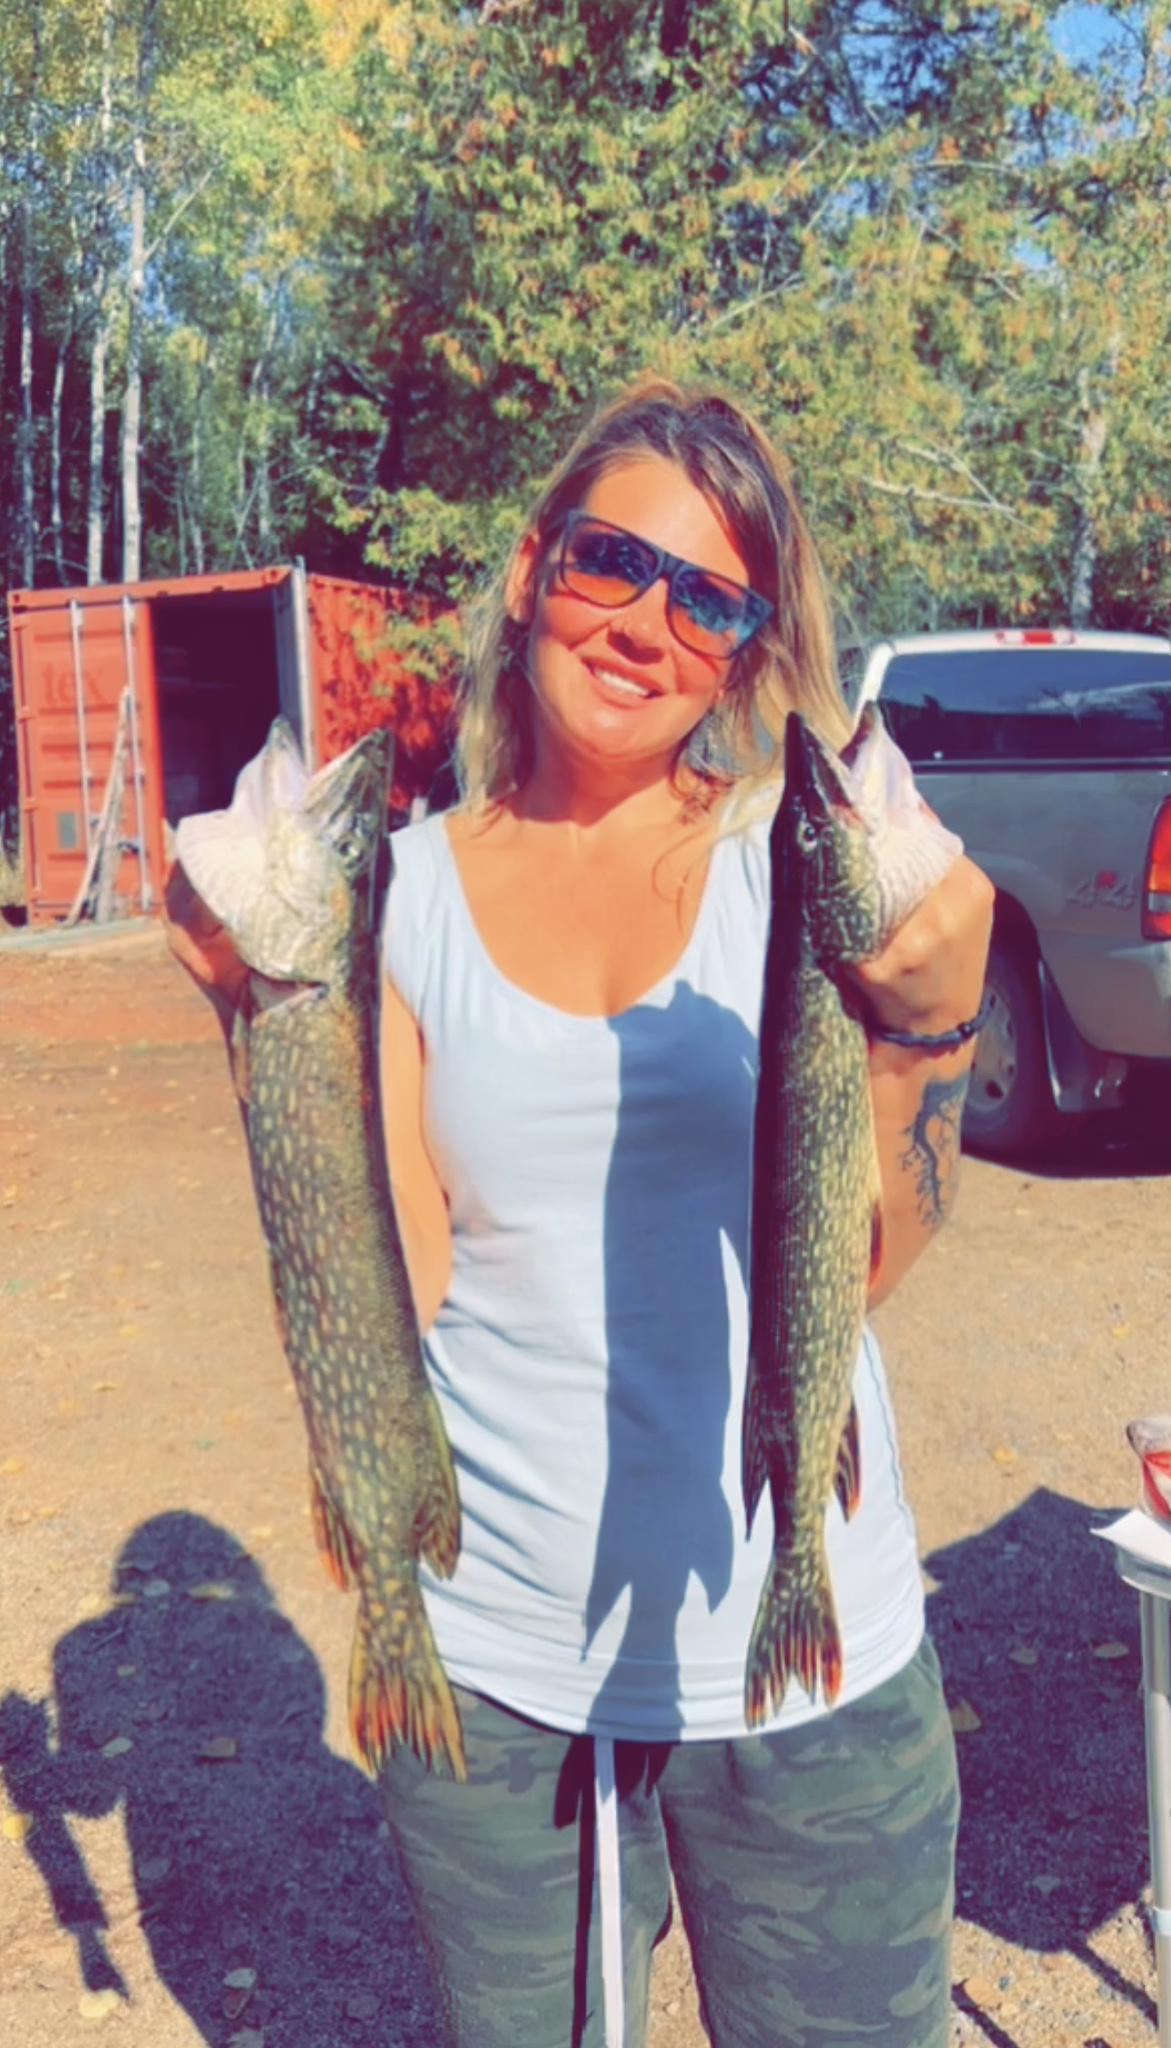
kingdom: Animalia
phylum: Chordata
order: Esociformes
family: Esocidae
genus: Esox
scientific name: Esox lucius
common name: Northern pike
